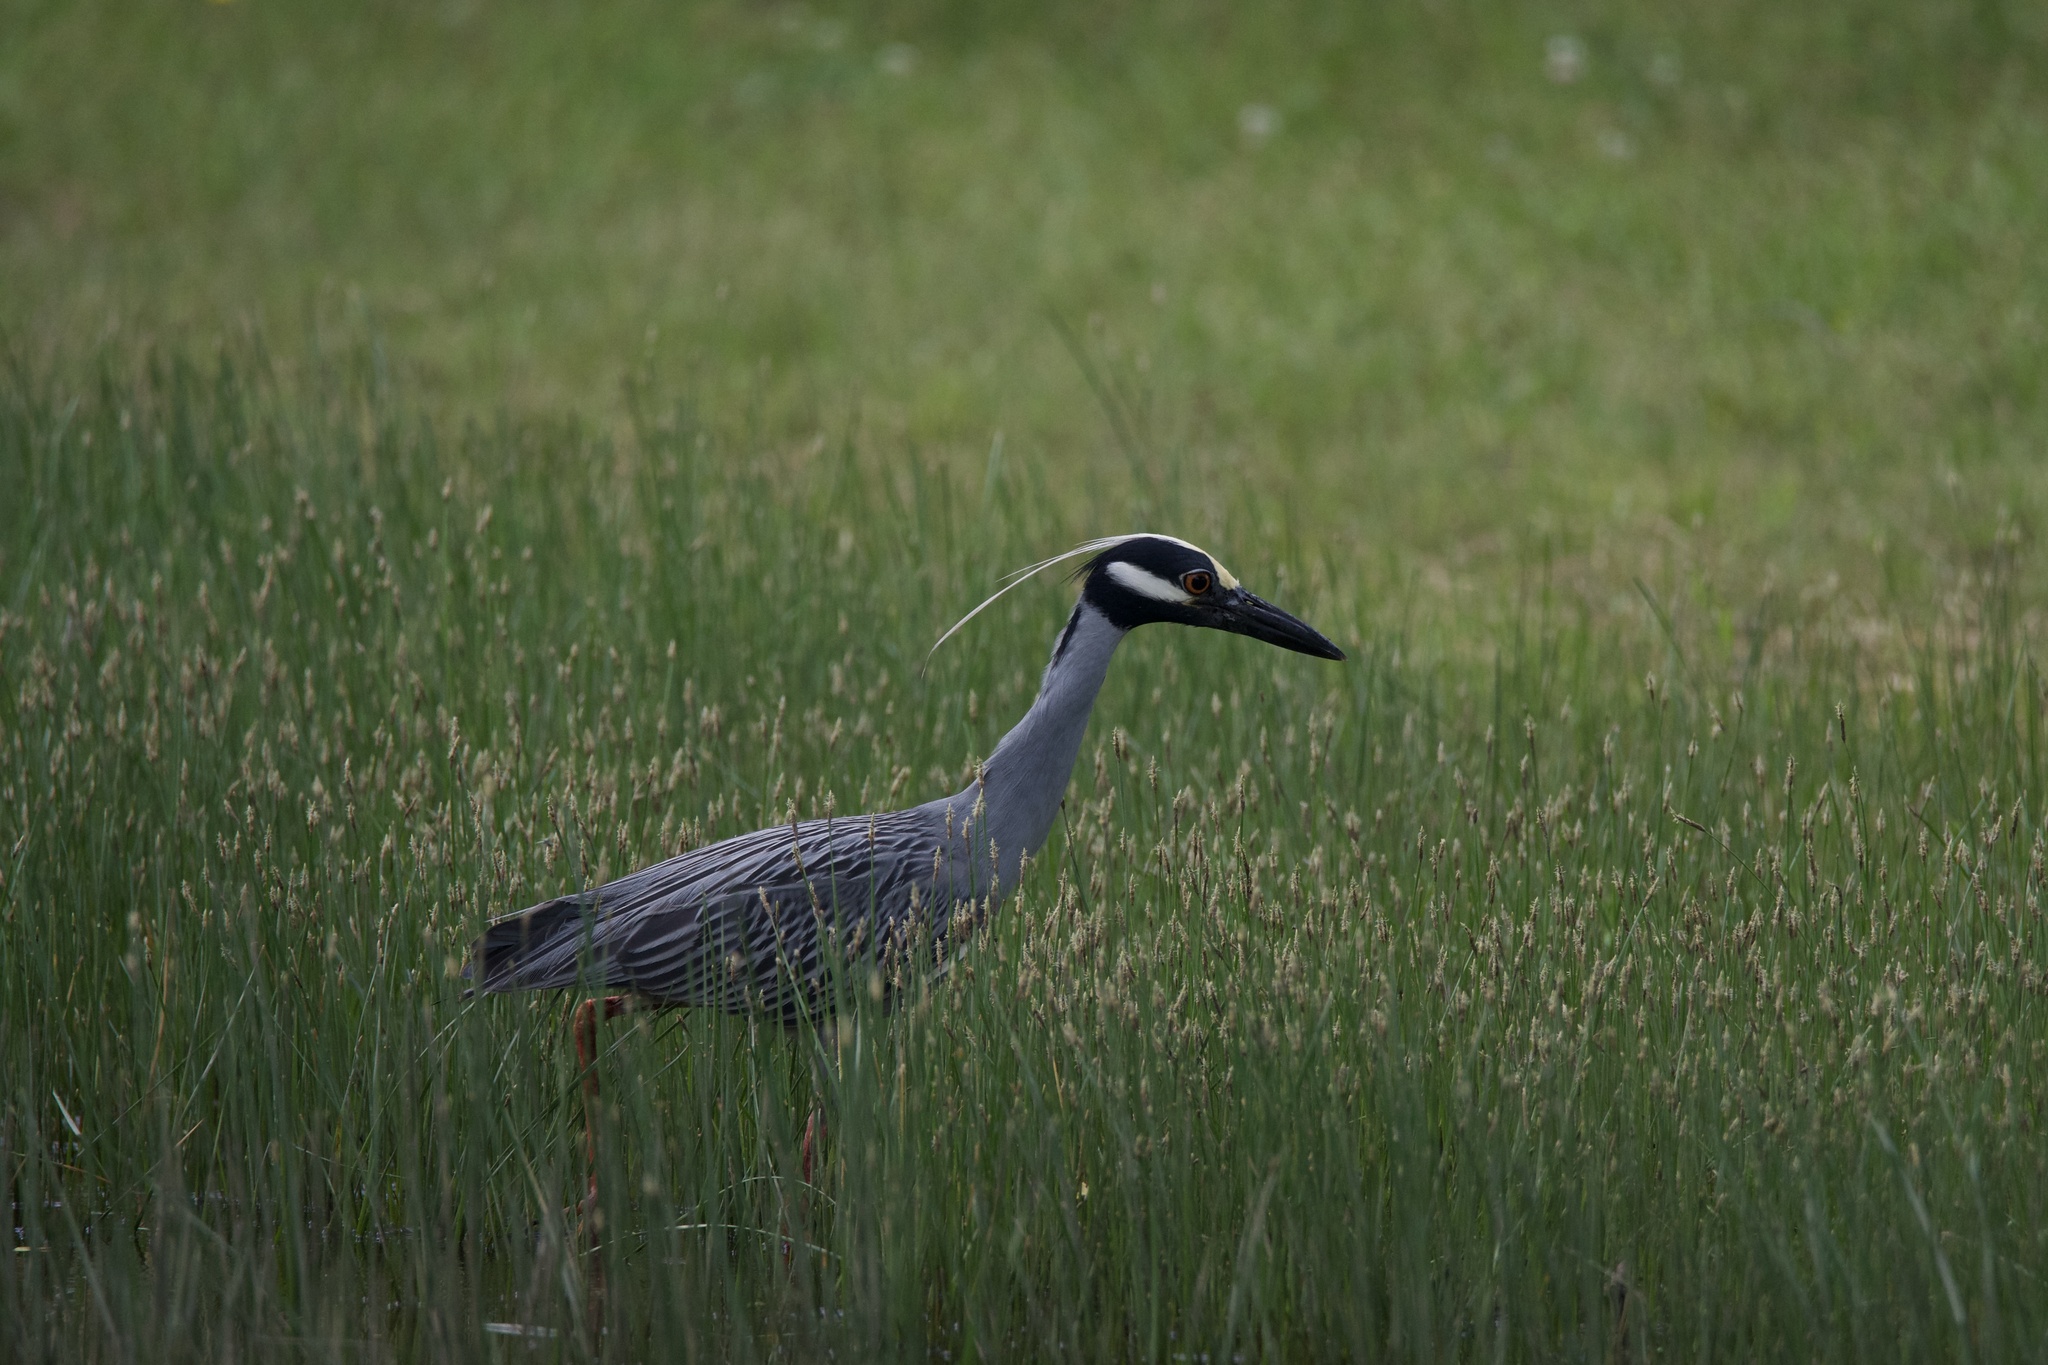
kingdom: Animalia
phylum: Chordata
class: Aves
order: Pelecaniformes
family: Ardeidae
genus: Nyctanassa
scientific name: Nyctanassa violacea
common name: Yellow-crowned night heron
